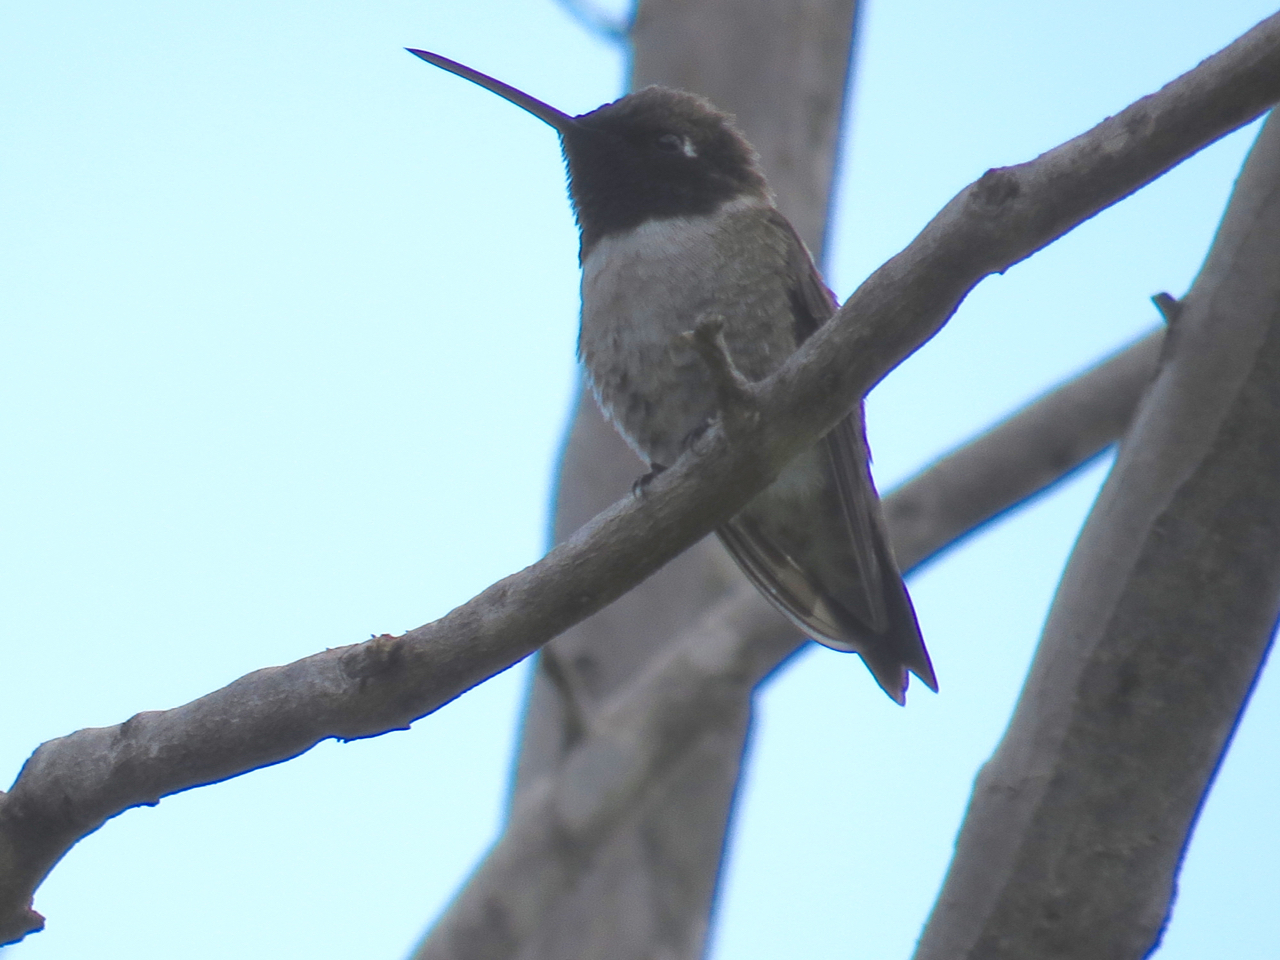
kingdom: Animalia
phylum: Chordata
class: Aves
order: Apodiformes
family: Trochilidae
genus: Archilochus
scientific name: Archilochus alexandri
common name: Black-chinned hummingbird
